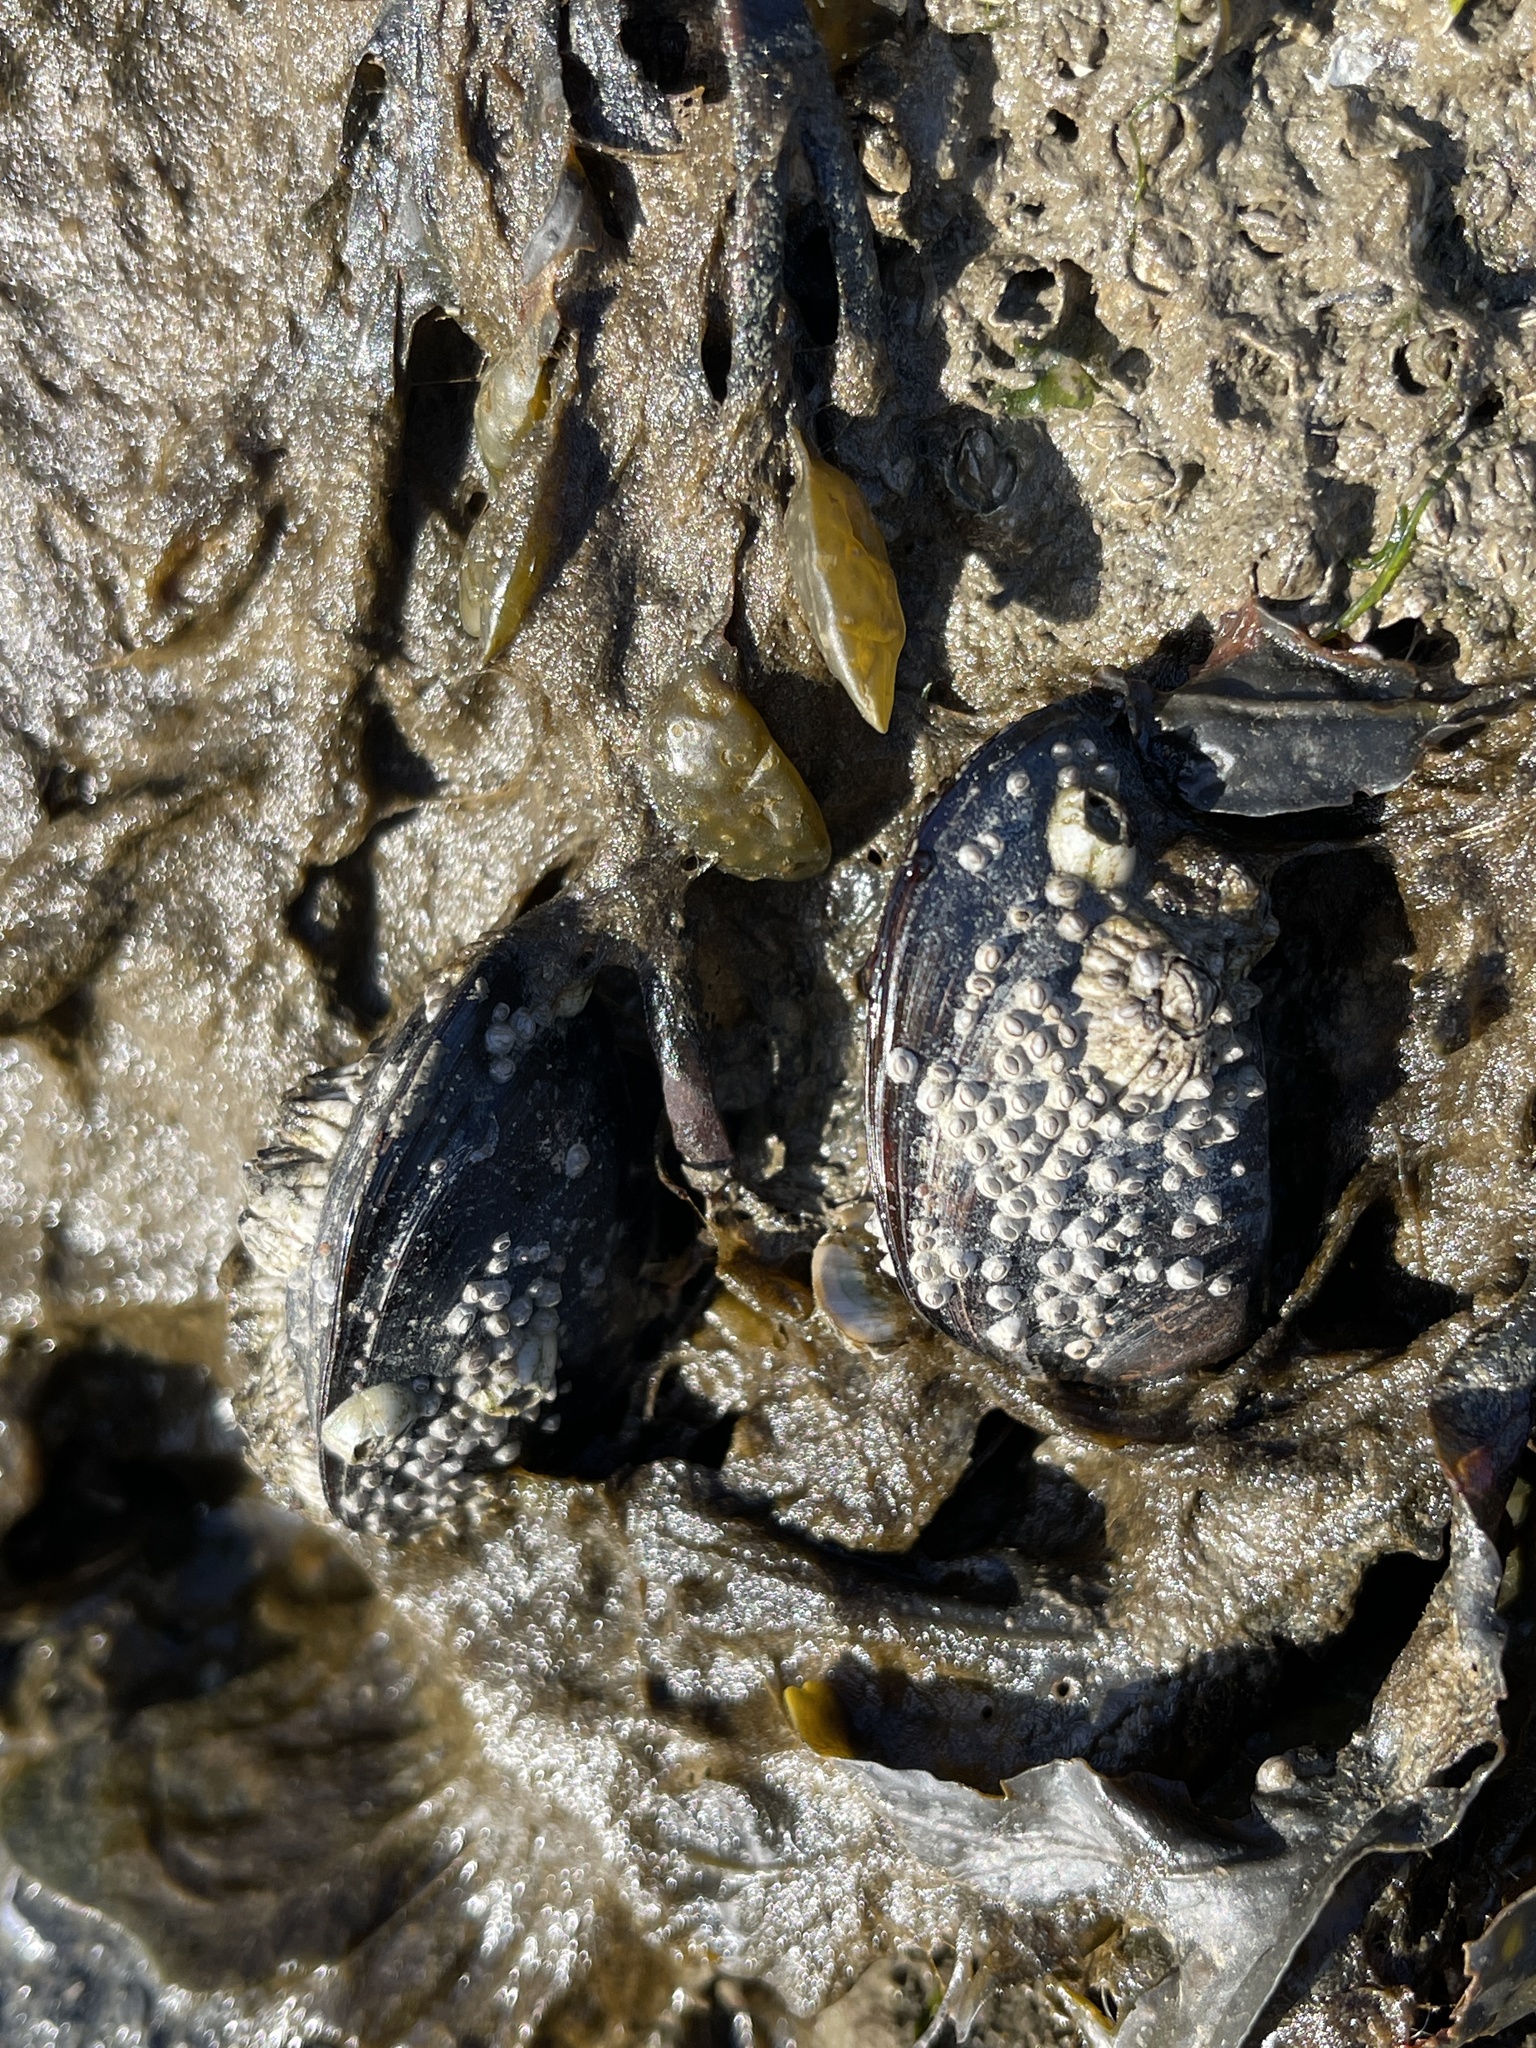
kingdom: Animalia
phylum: Mollusca
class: Bivalvia
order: Mytilida
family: Mytilidae
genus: Mytilus
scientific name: Mytilus edulis
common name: Blue mussel
